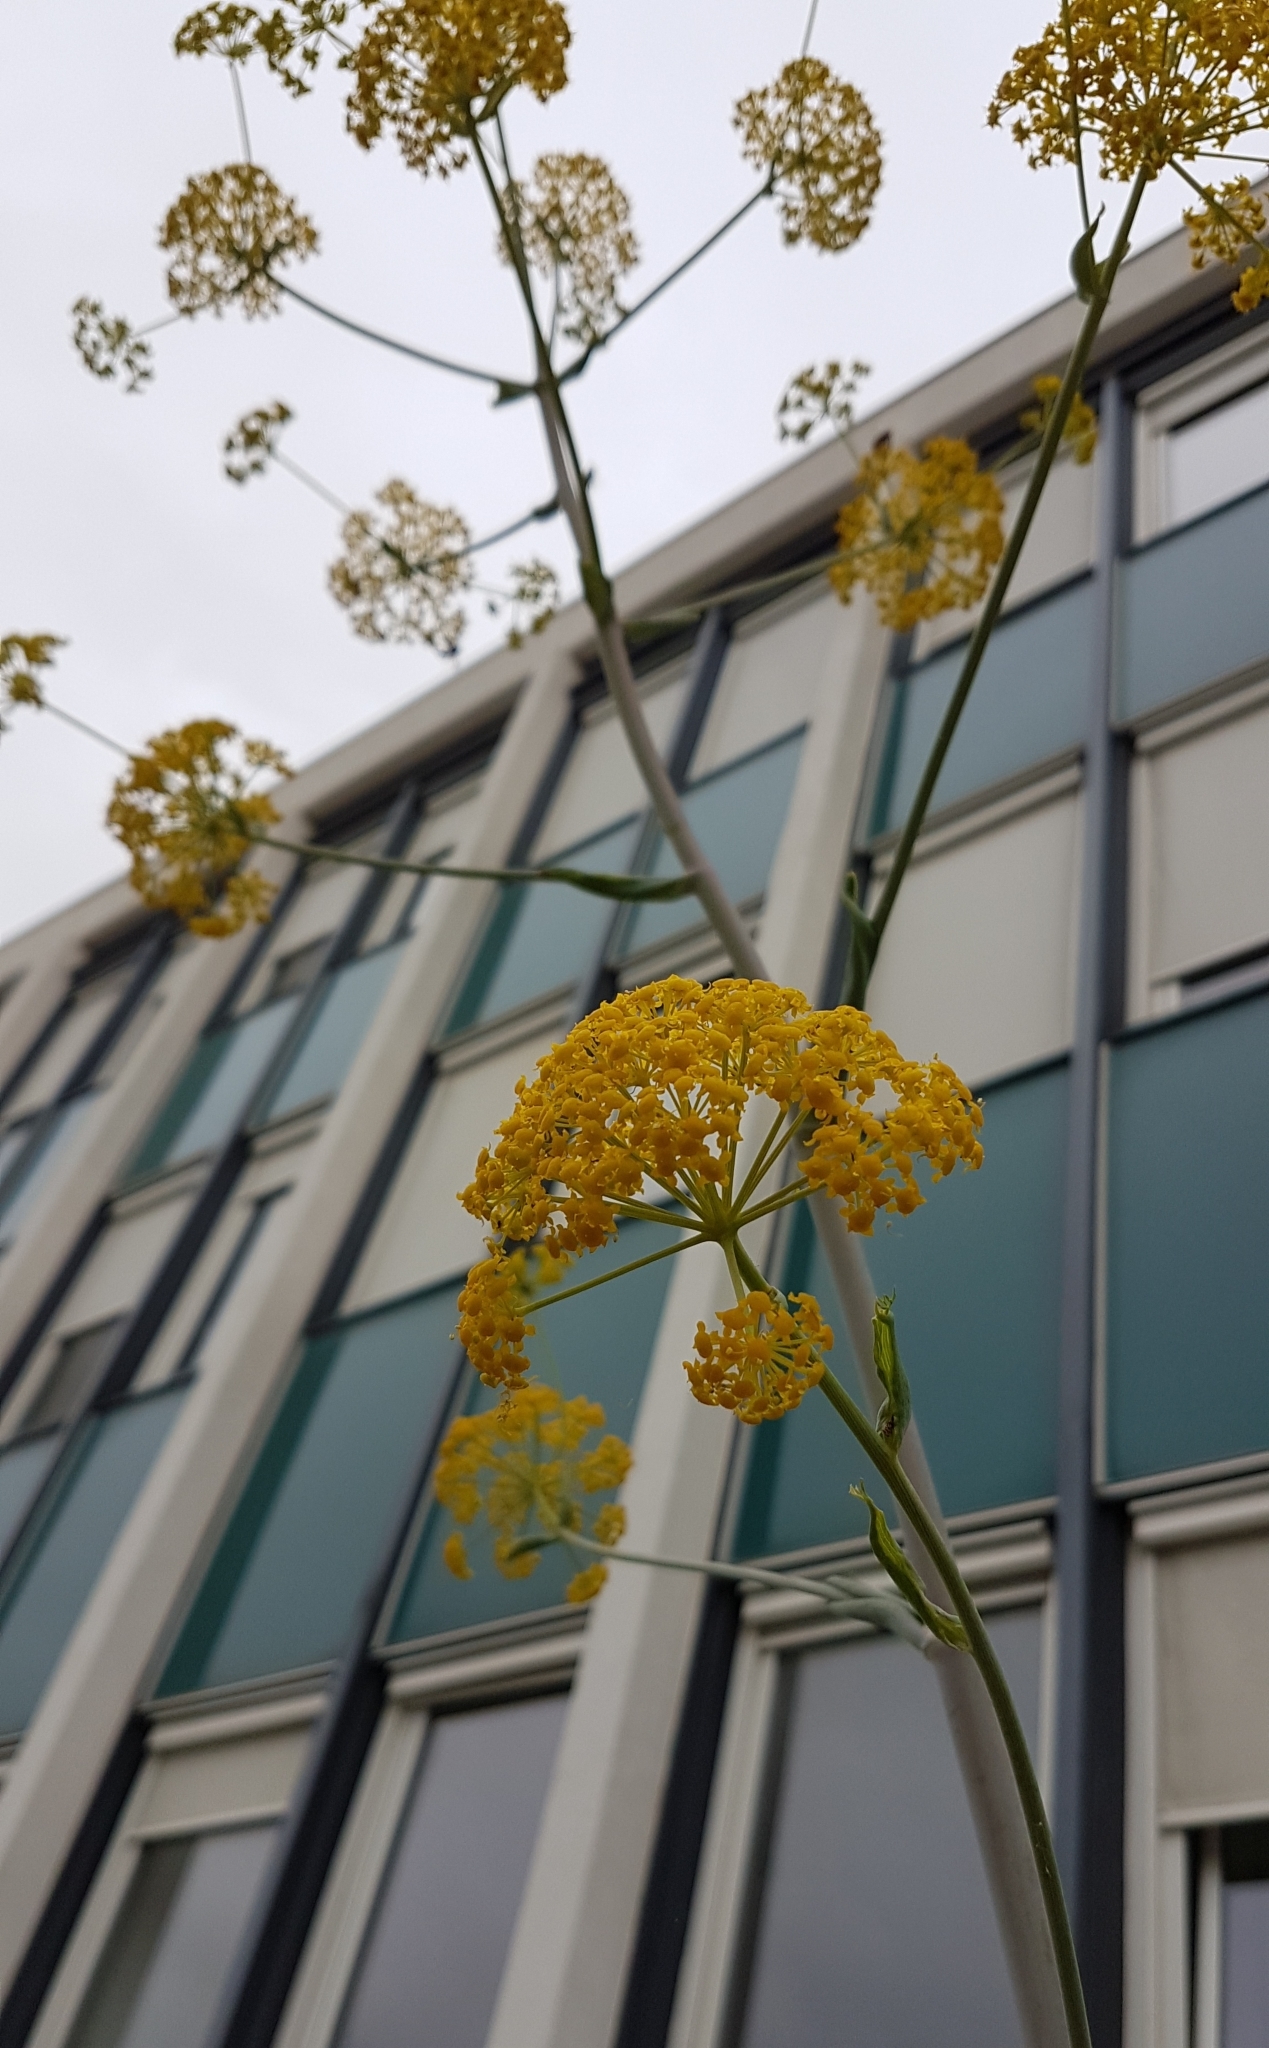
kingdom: Plantae
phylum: Tracheophyta
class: Magnoliopsida
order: Apiales
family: Apiaceae
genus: Ferula
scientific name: Ferula glauca
